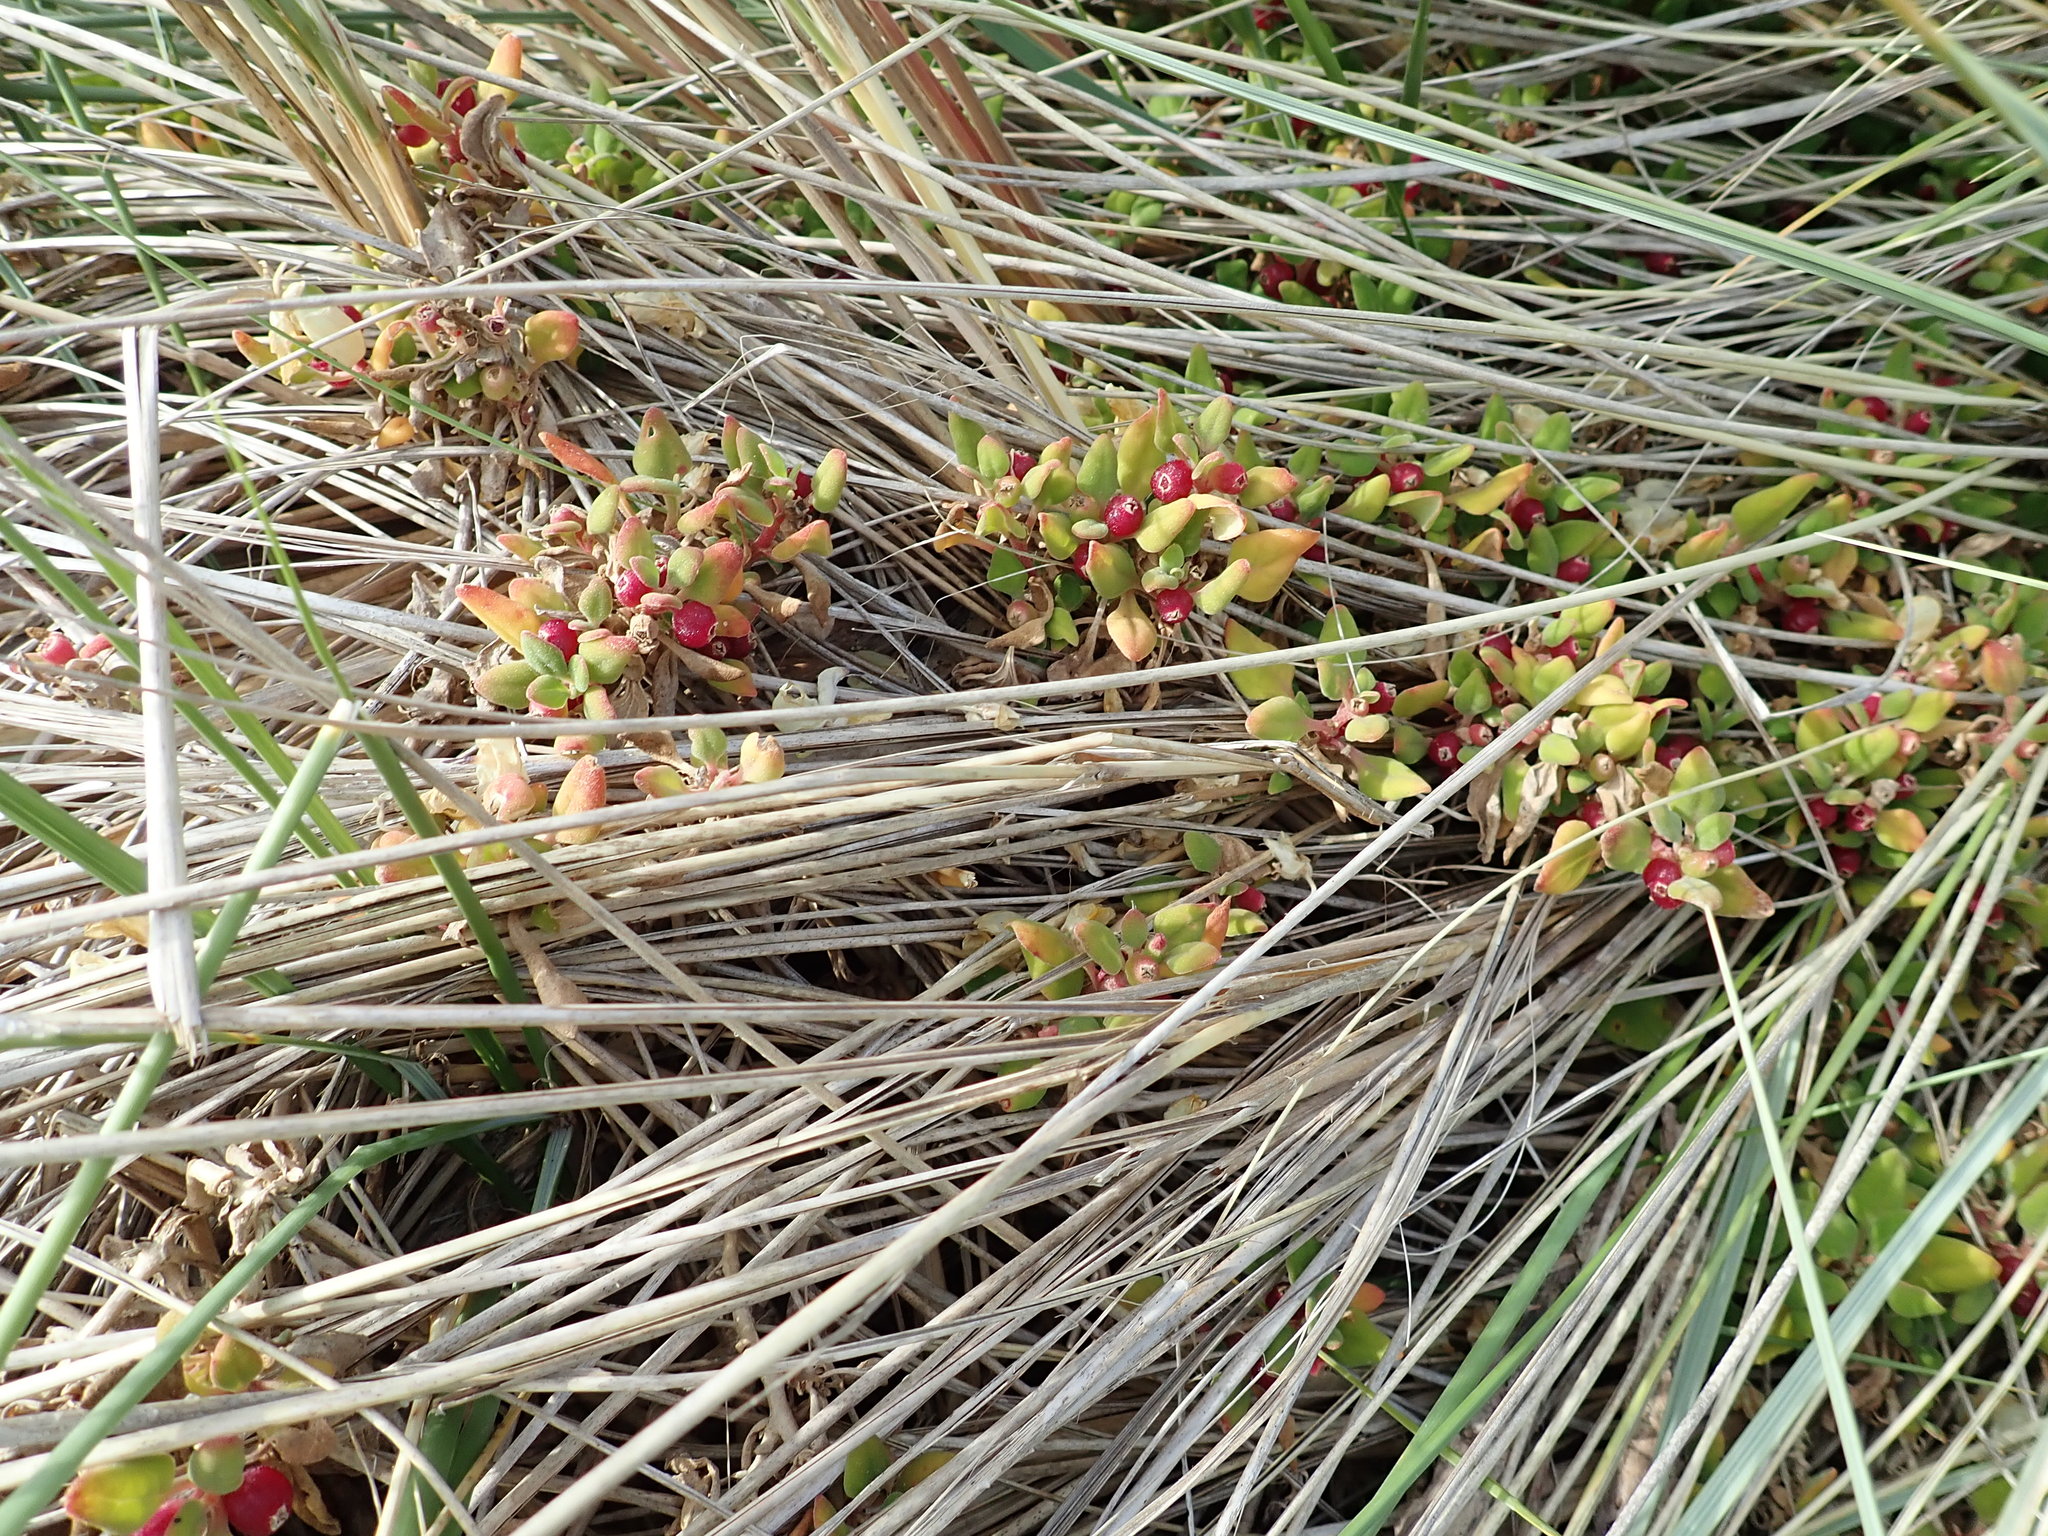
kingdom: Plantae
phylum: Tracheophyta
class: Magnoliopsida
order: Caryophyllales
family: Aizoaceae
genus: Tetragonia
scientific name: Tetragonia implexicoma
